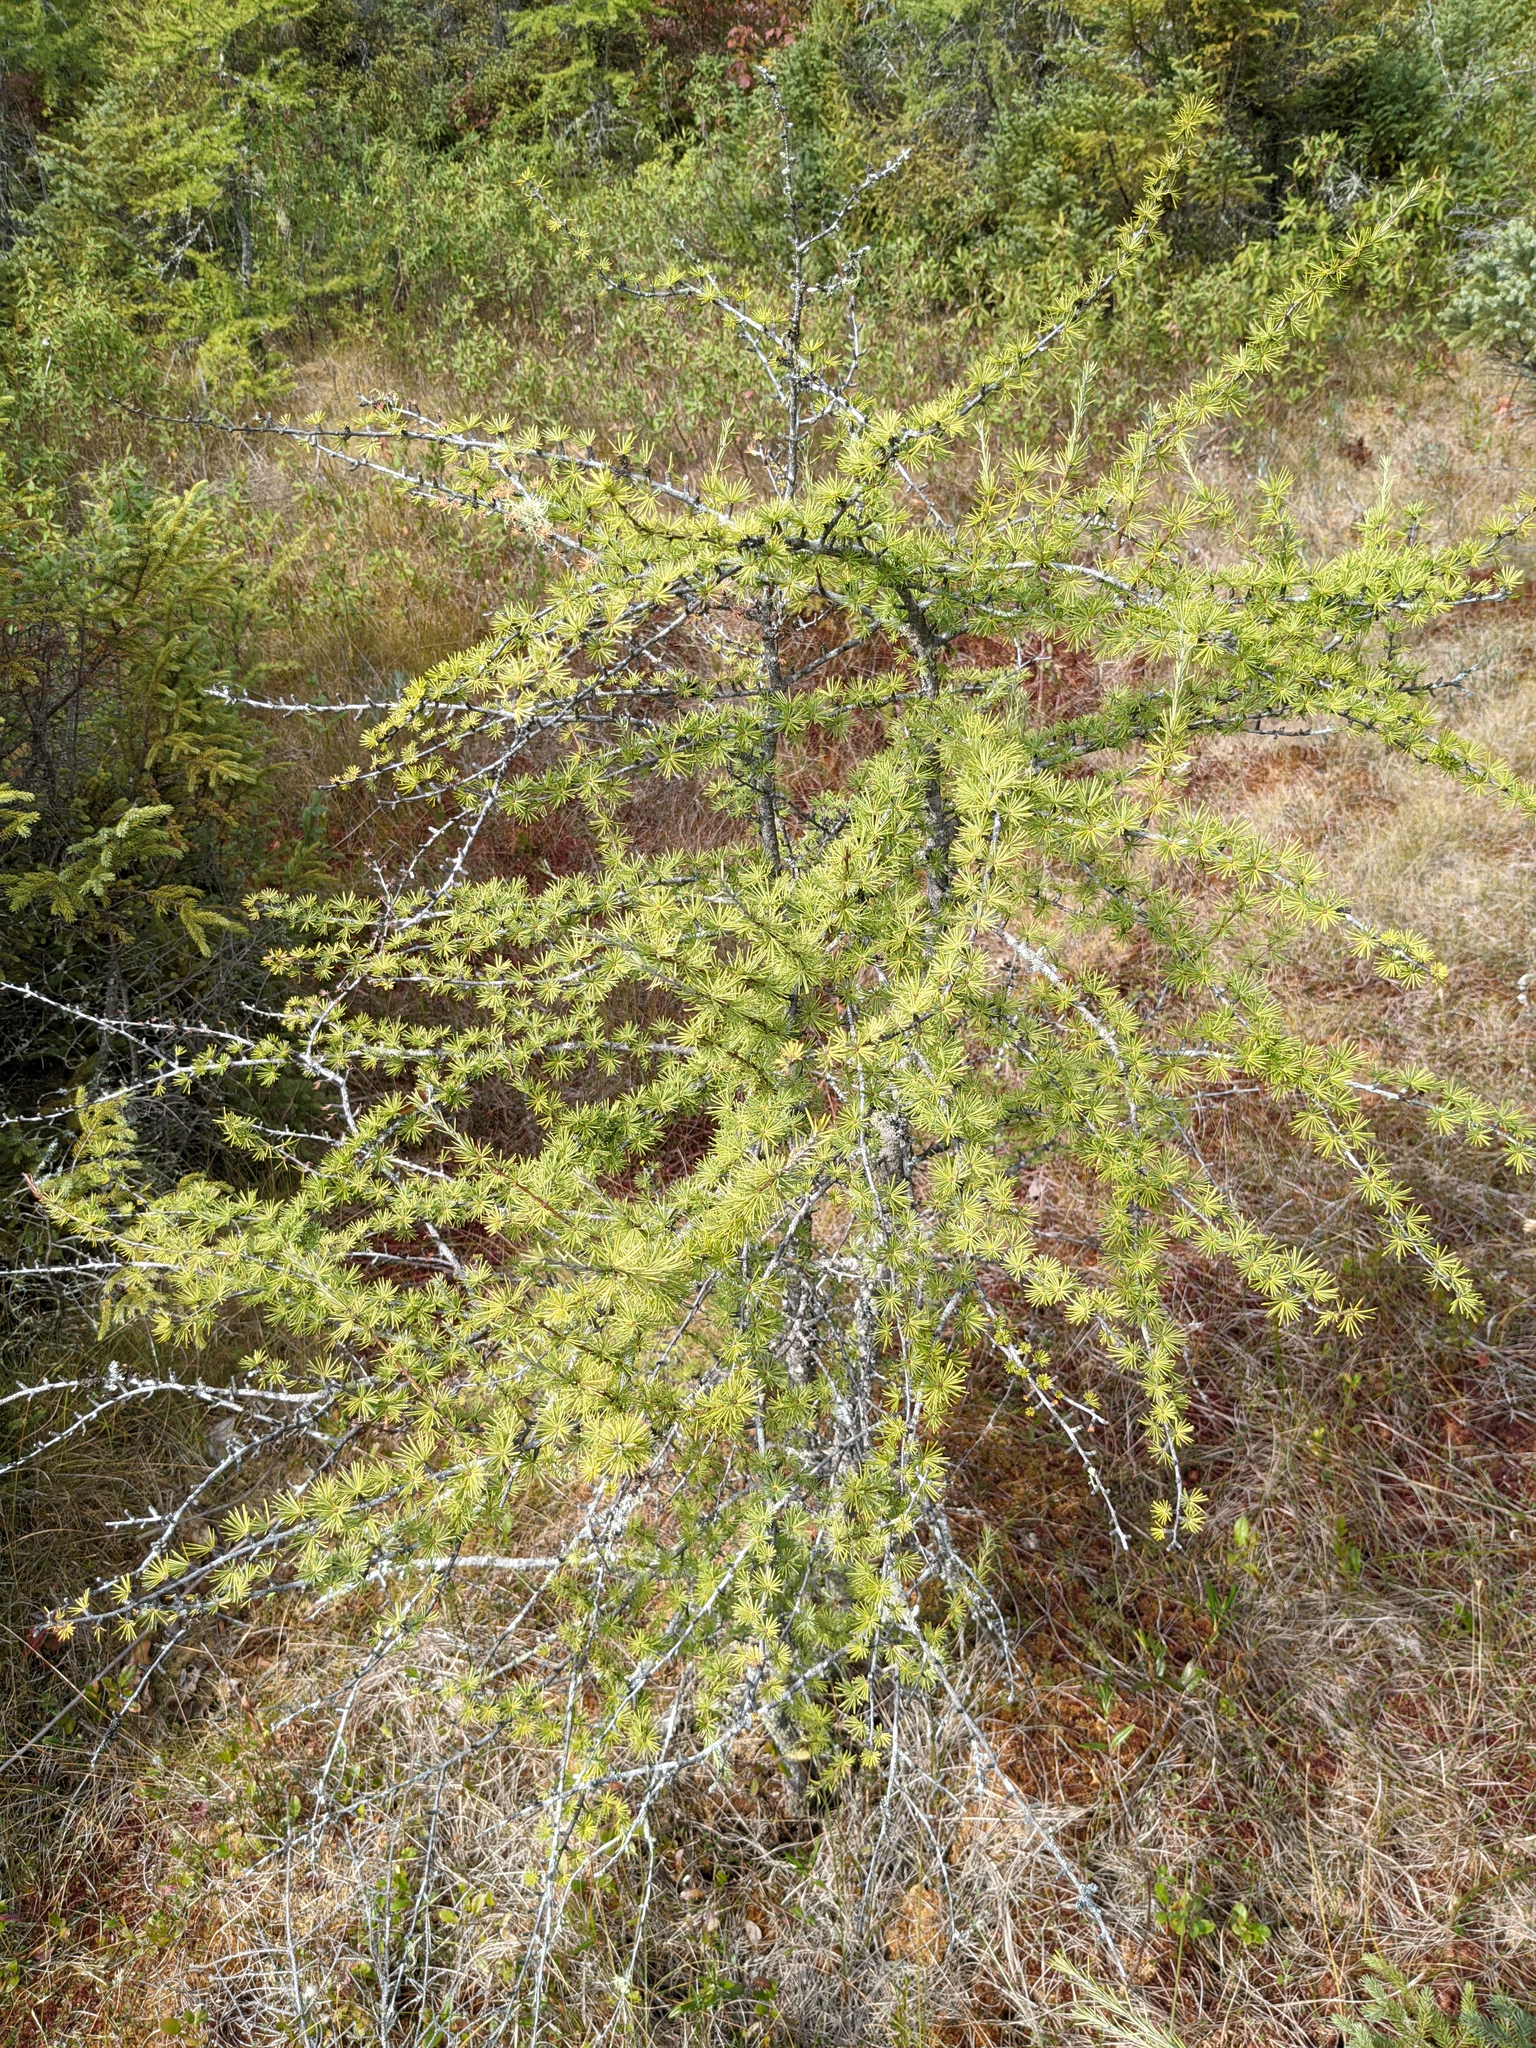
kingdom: Plantae
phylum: Tracheophyta
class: Pinopsida
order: Pinales
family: Pinaceae
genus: Larix
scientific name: Larix laricina
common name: American larch
